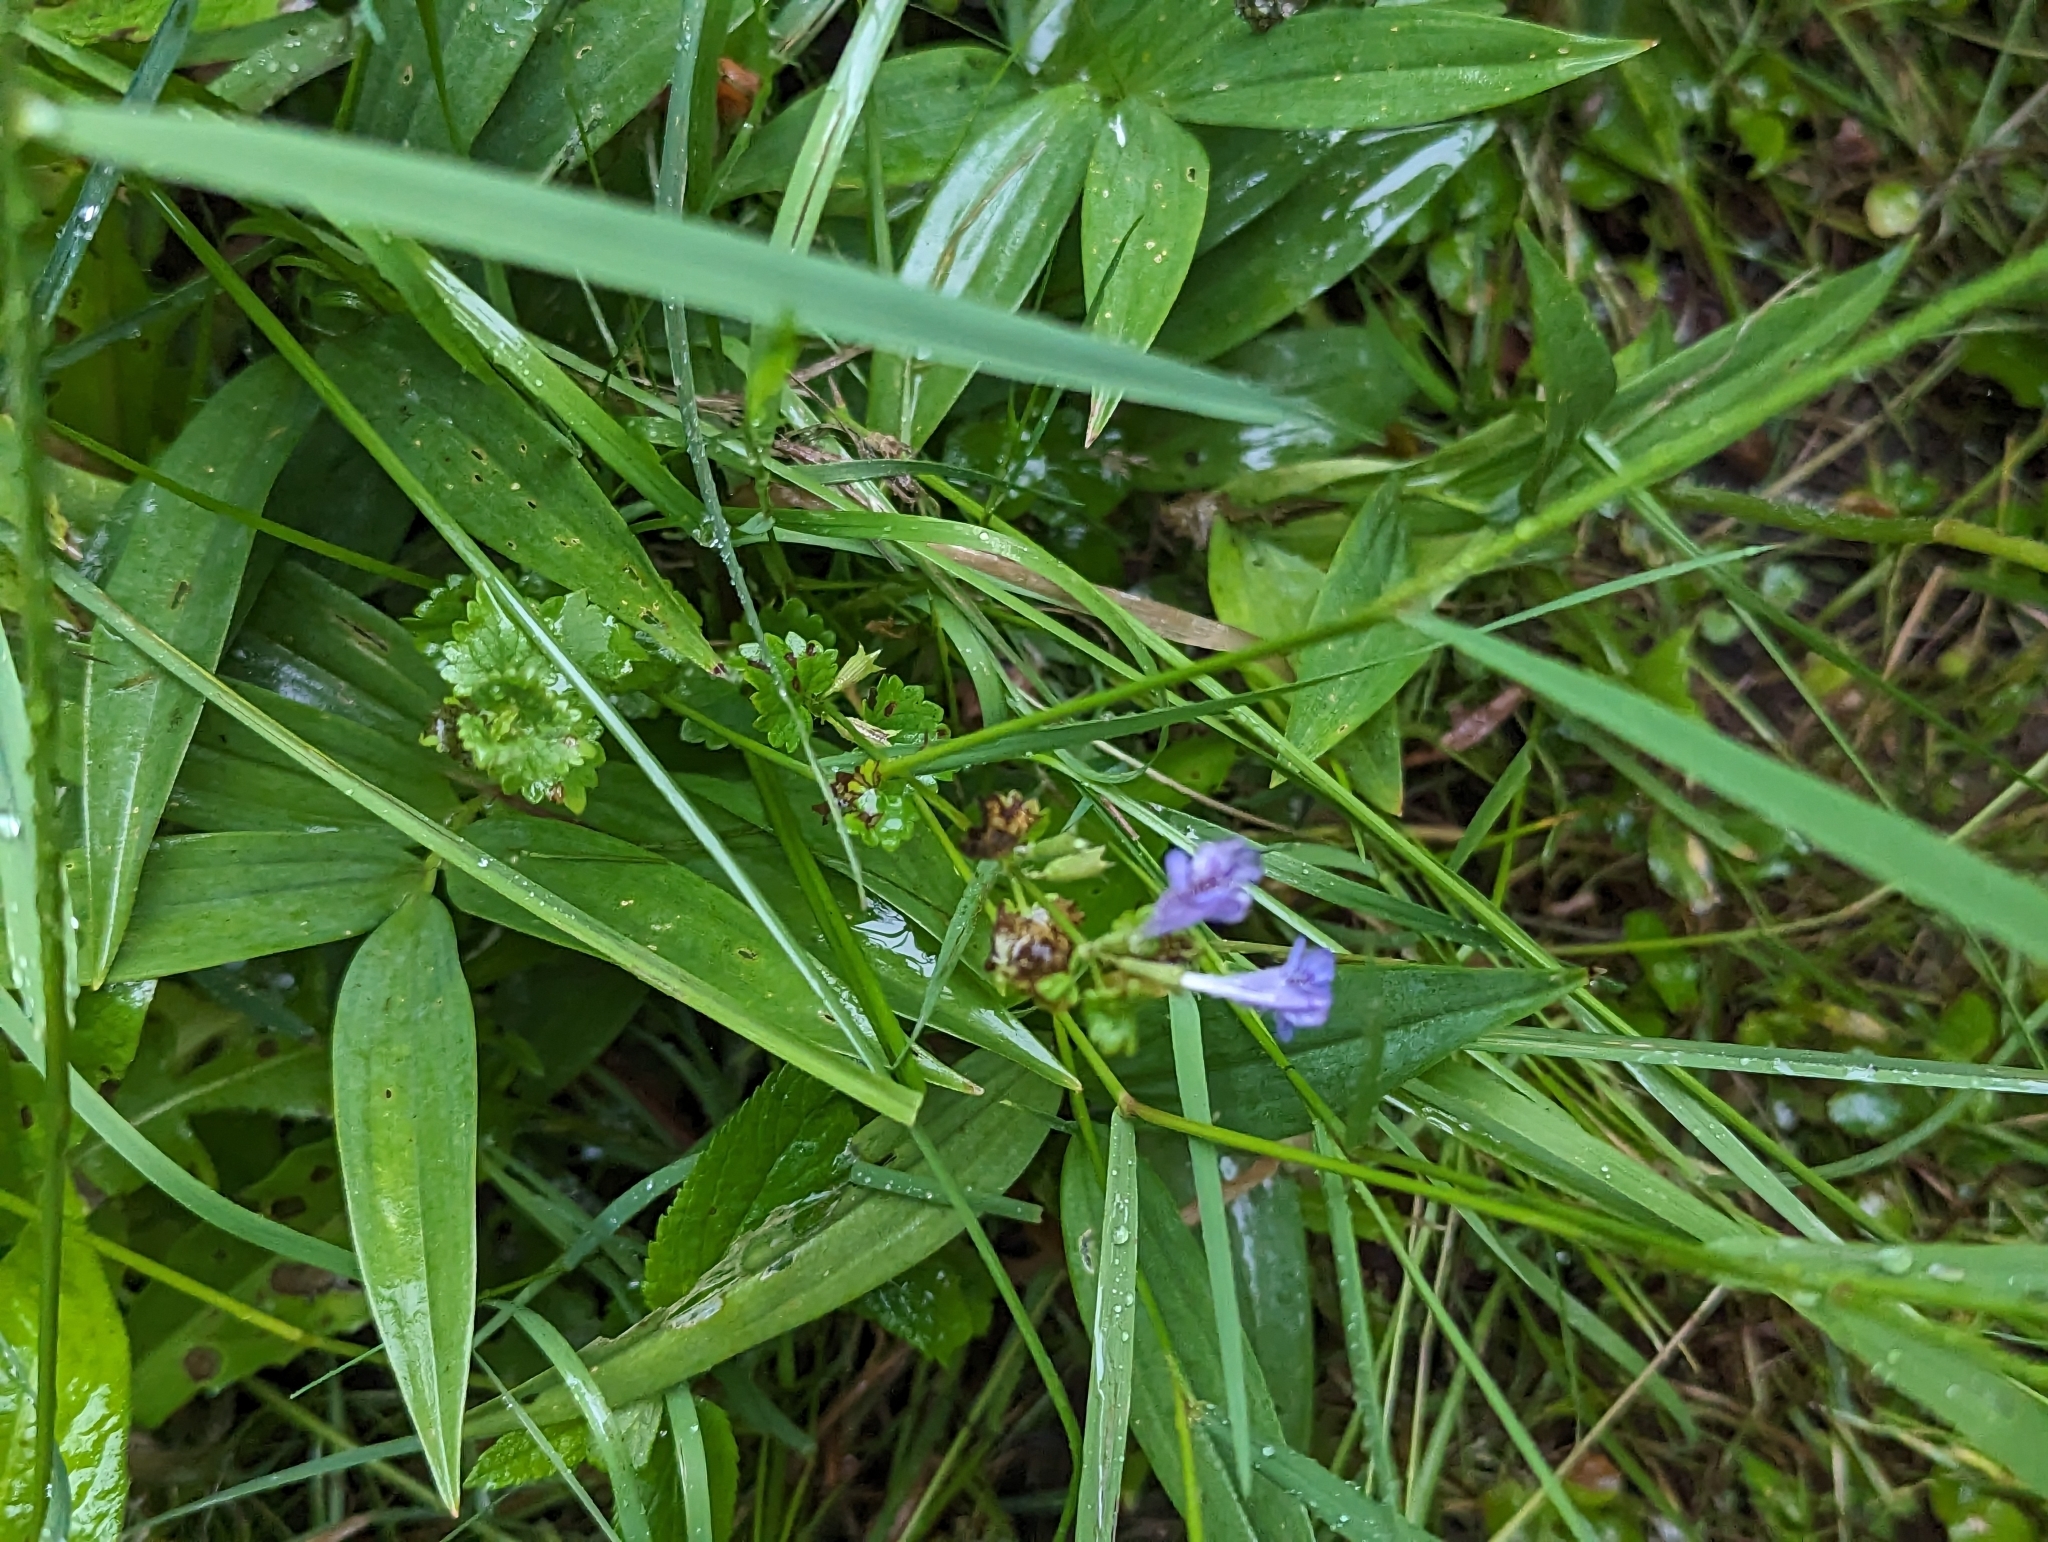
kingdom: Plantae
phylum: Tracheophyta
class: Magnoliopsida
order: Lamiales
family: Lamiaceae
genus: Glechoma
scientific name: Glechoma hederacea
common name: Ground ivy
